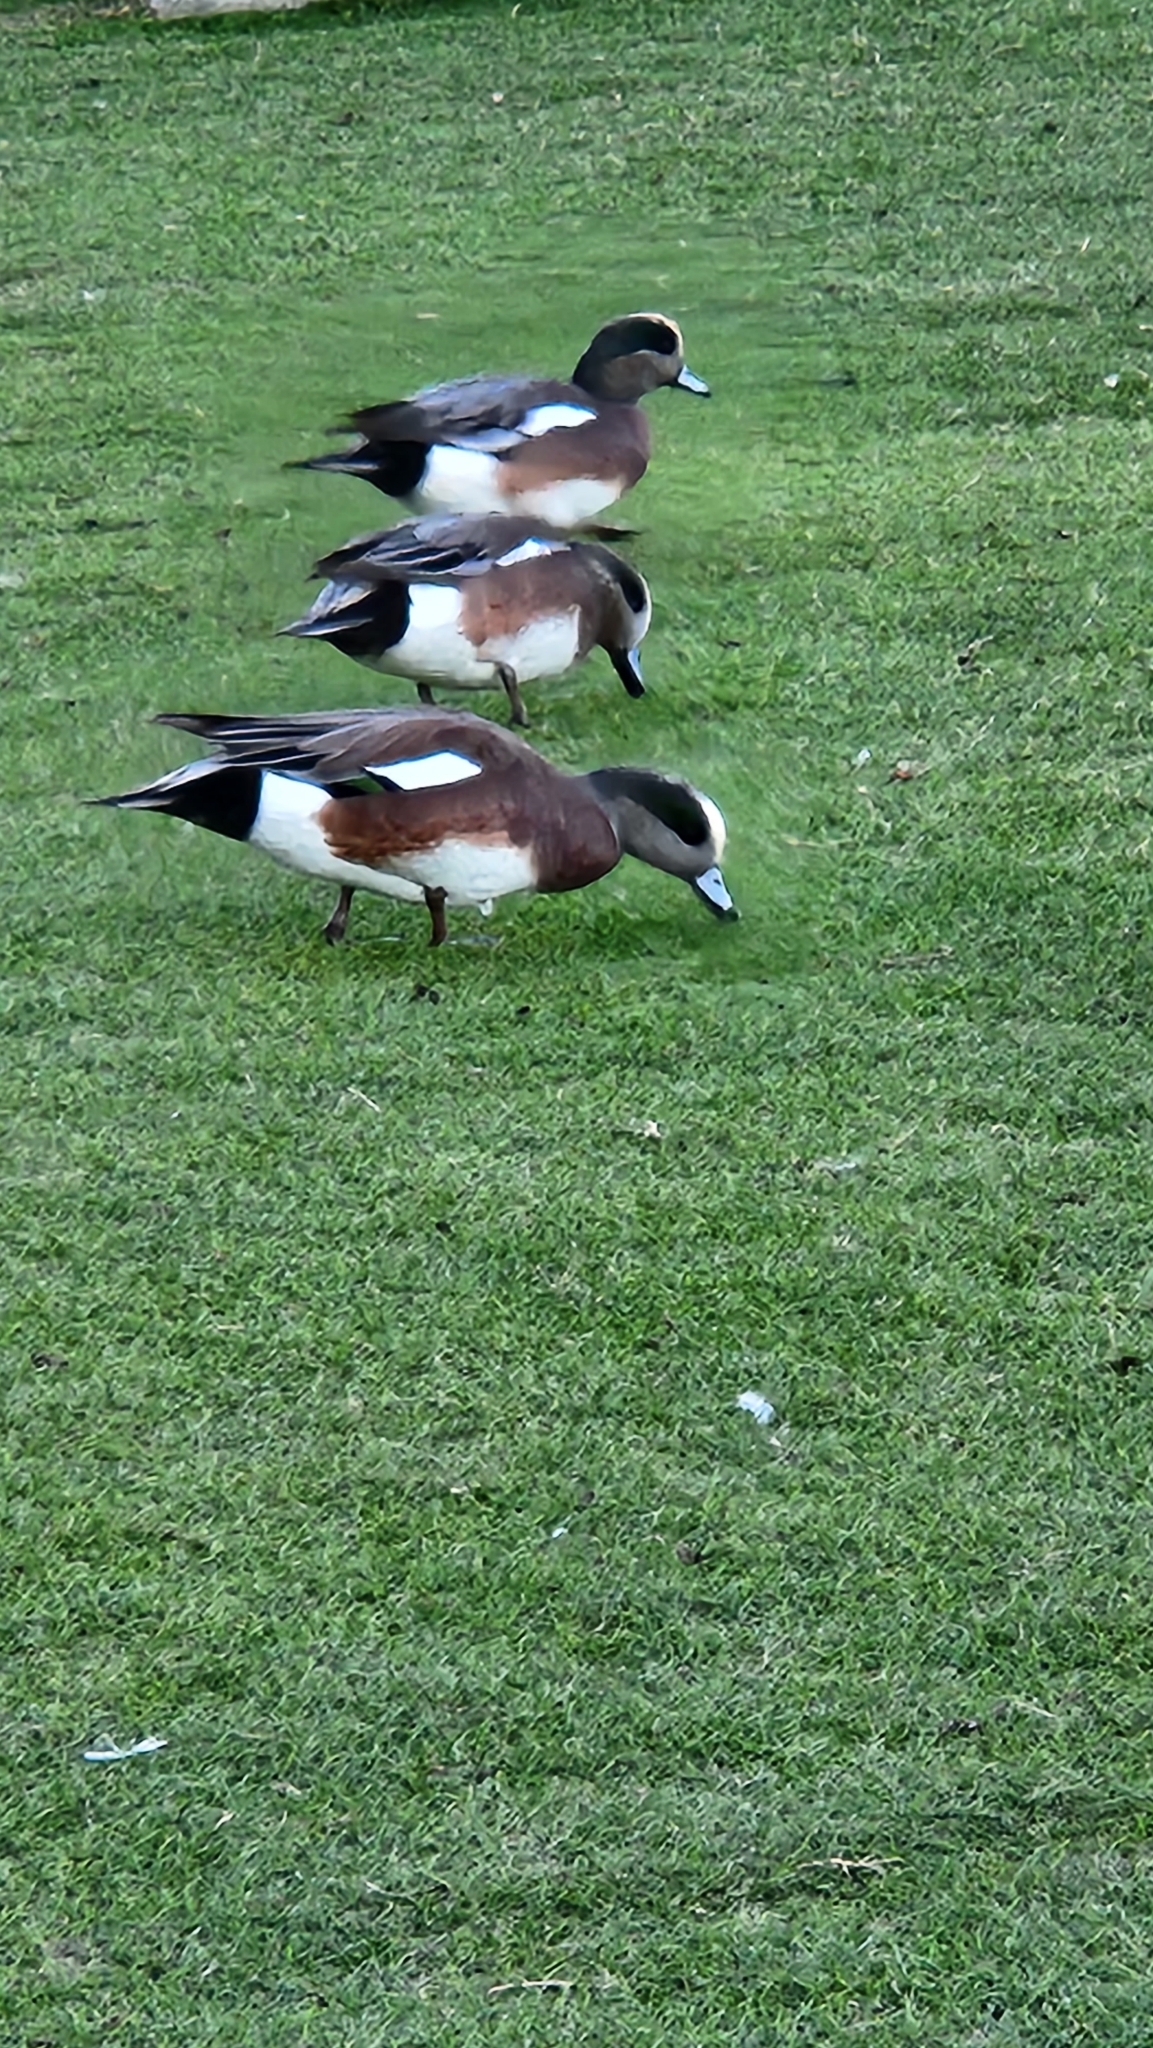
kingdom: Animalia
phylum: Chordata
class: Aves
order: Anseriformes
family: Anatidae
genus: Mareca
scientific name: Mareca americana
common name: American wigeon
